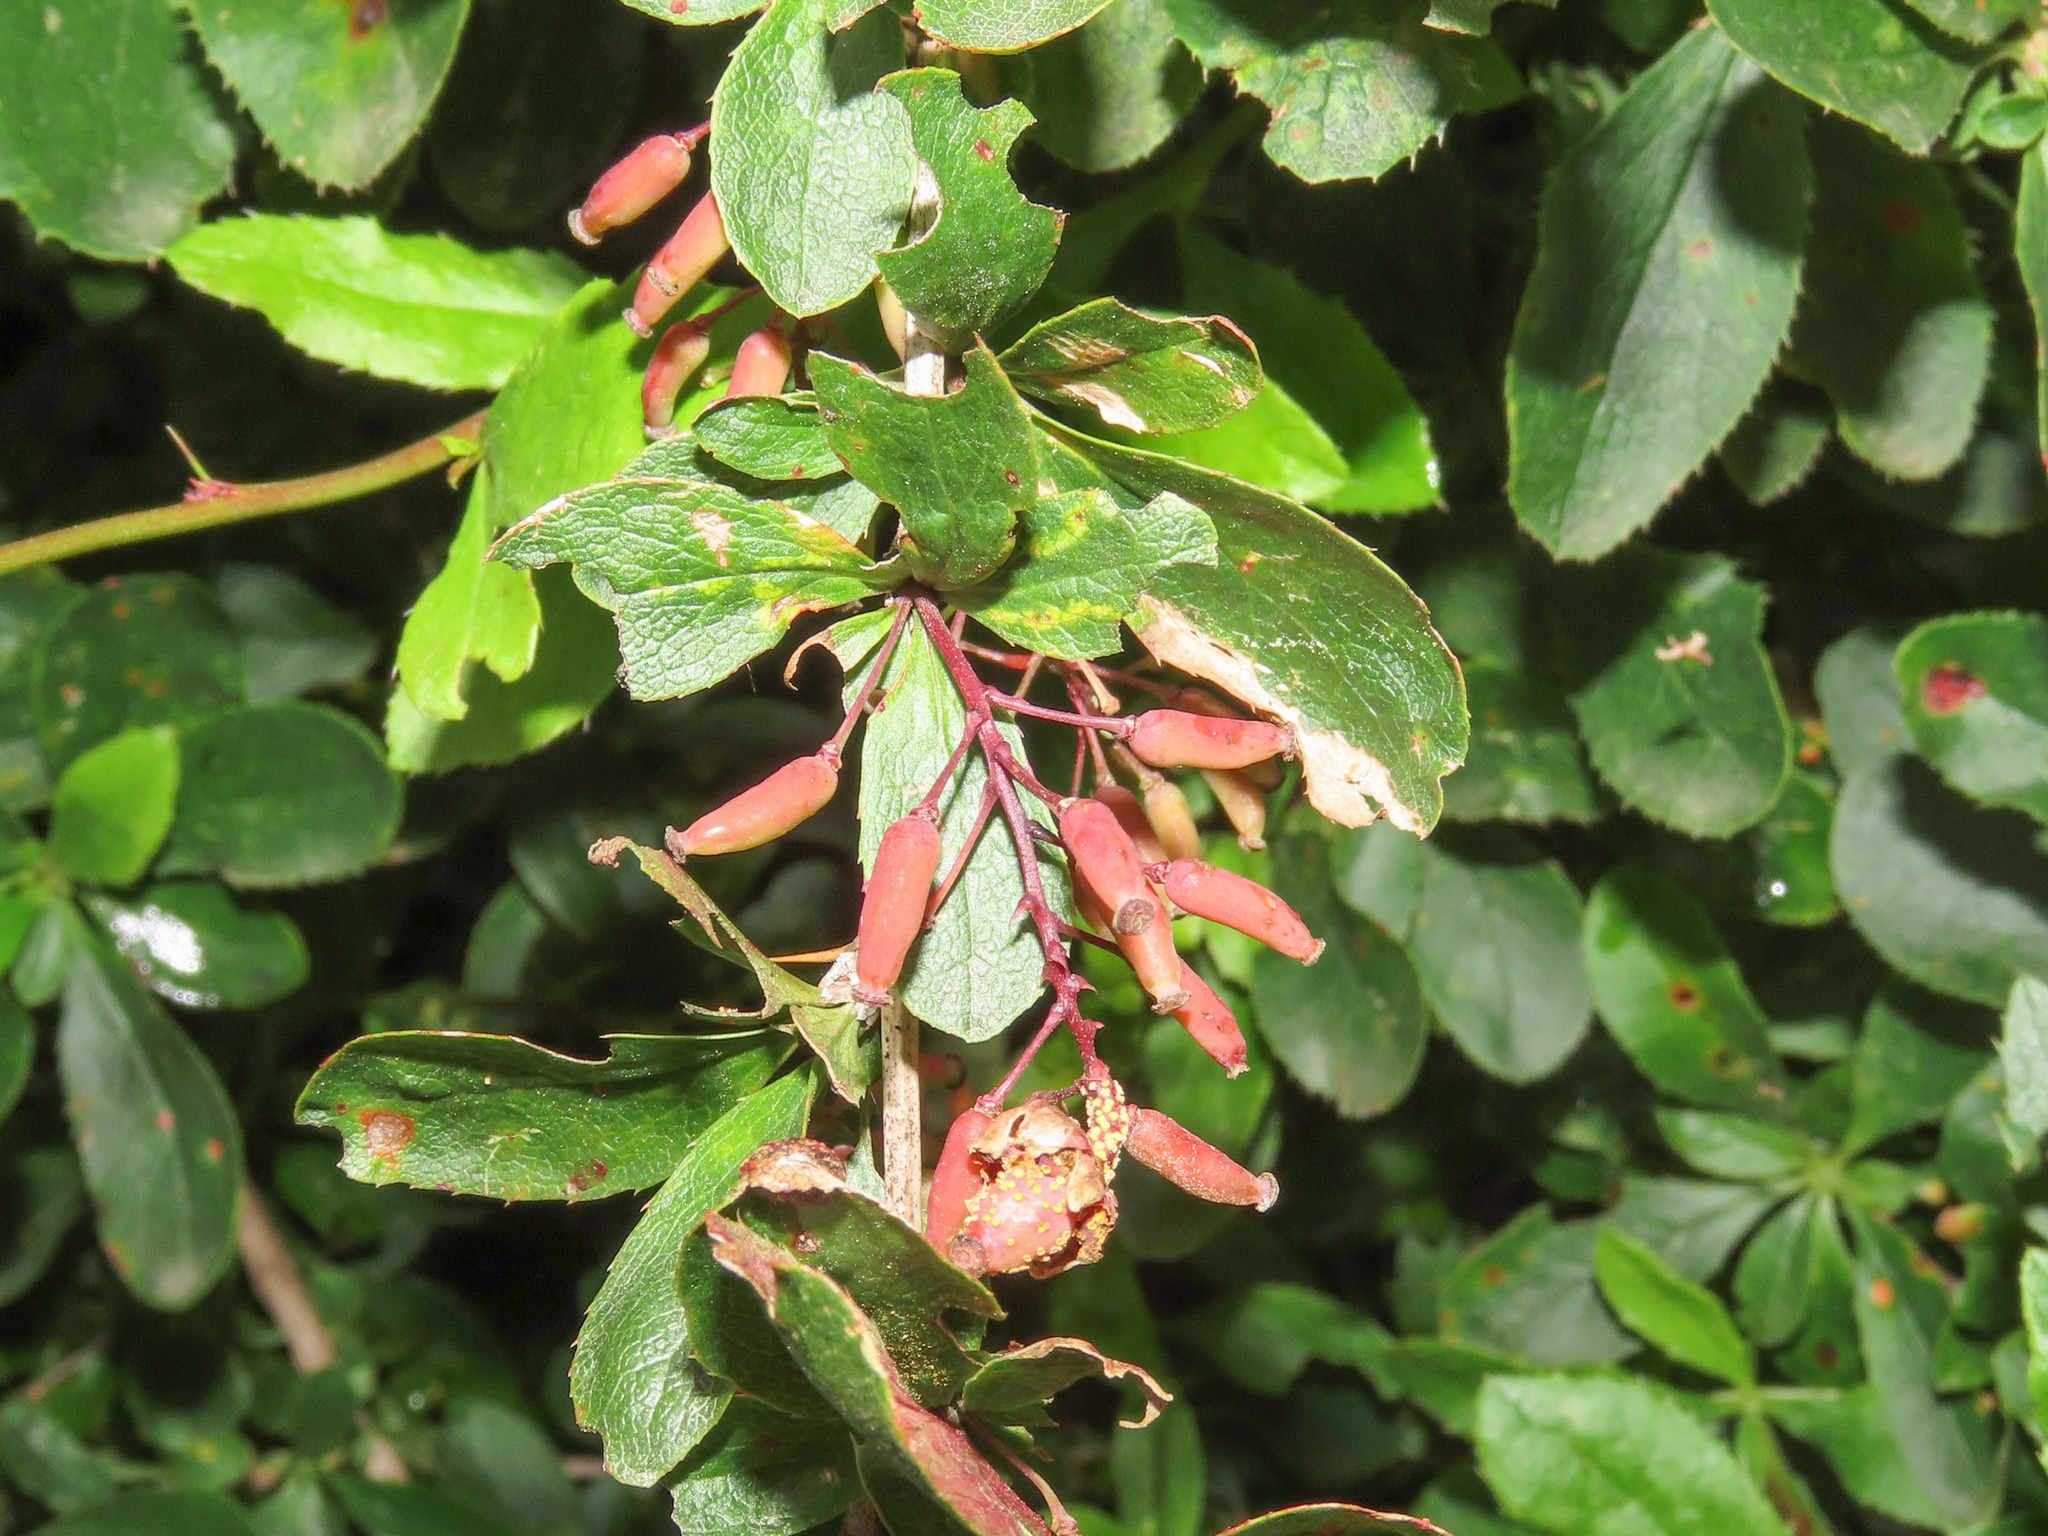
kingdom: Plantae
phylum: Tracheophyta
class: Magnoliopsida
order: Ranunculales
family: Berberidaceae
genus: Berberis
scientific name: Berberis vulgaris
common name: Barberry
